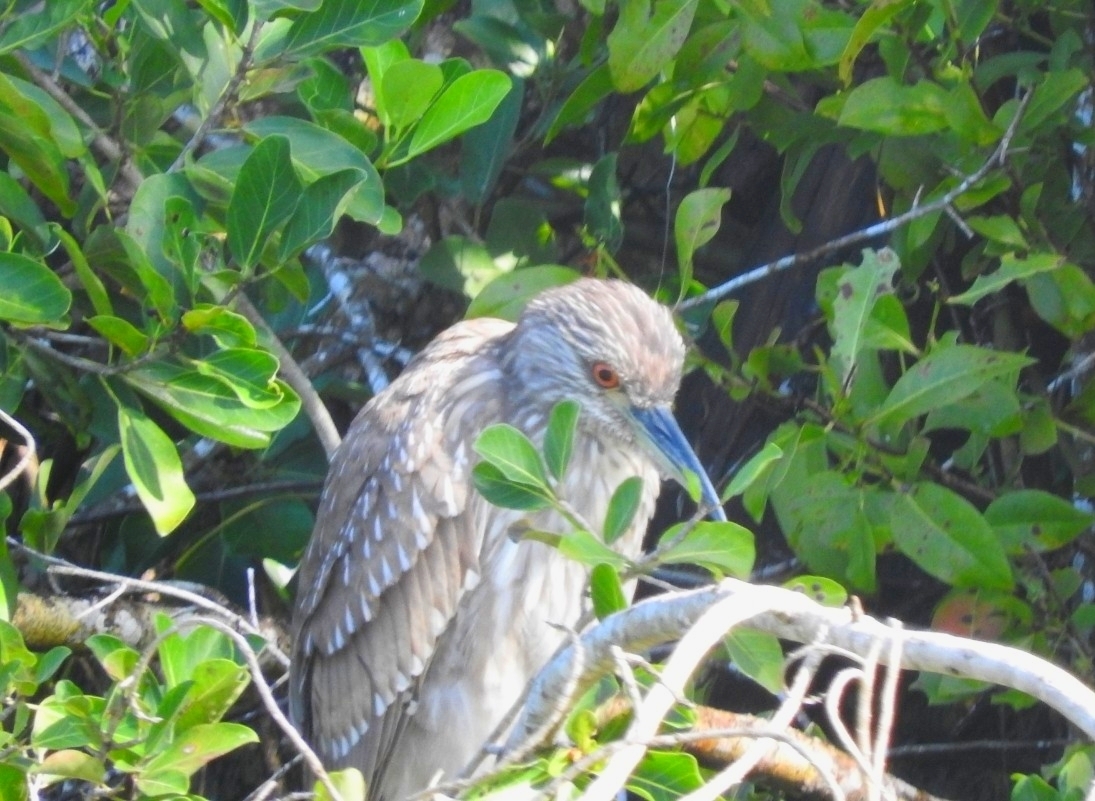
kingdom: Animalia
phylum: Chordata
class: Aves
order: Pelecaniformes
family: Ardeidae
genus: Nycticorax
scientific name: Nycticorax nycticorax
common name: Black-crowned night heron
